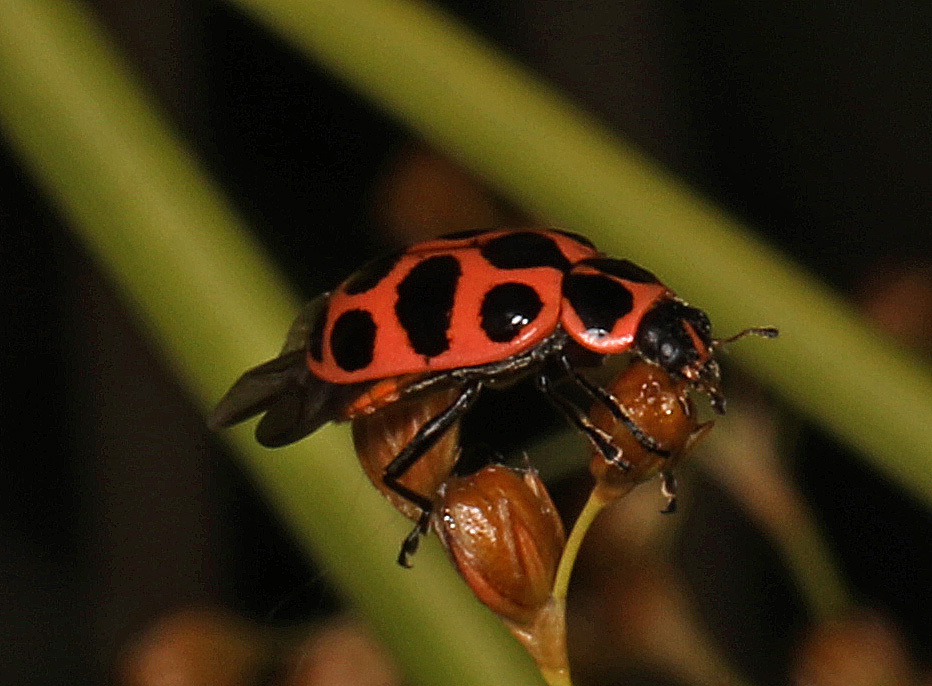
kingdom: Animalia
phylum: Arthropoda
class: Insecta
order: Coleoptera
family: Coccinellidae
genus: Coleomegilla
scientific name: Coleomegilla maculata
